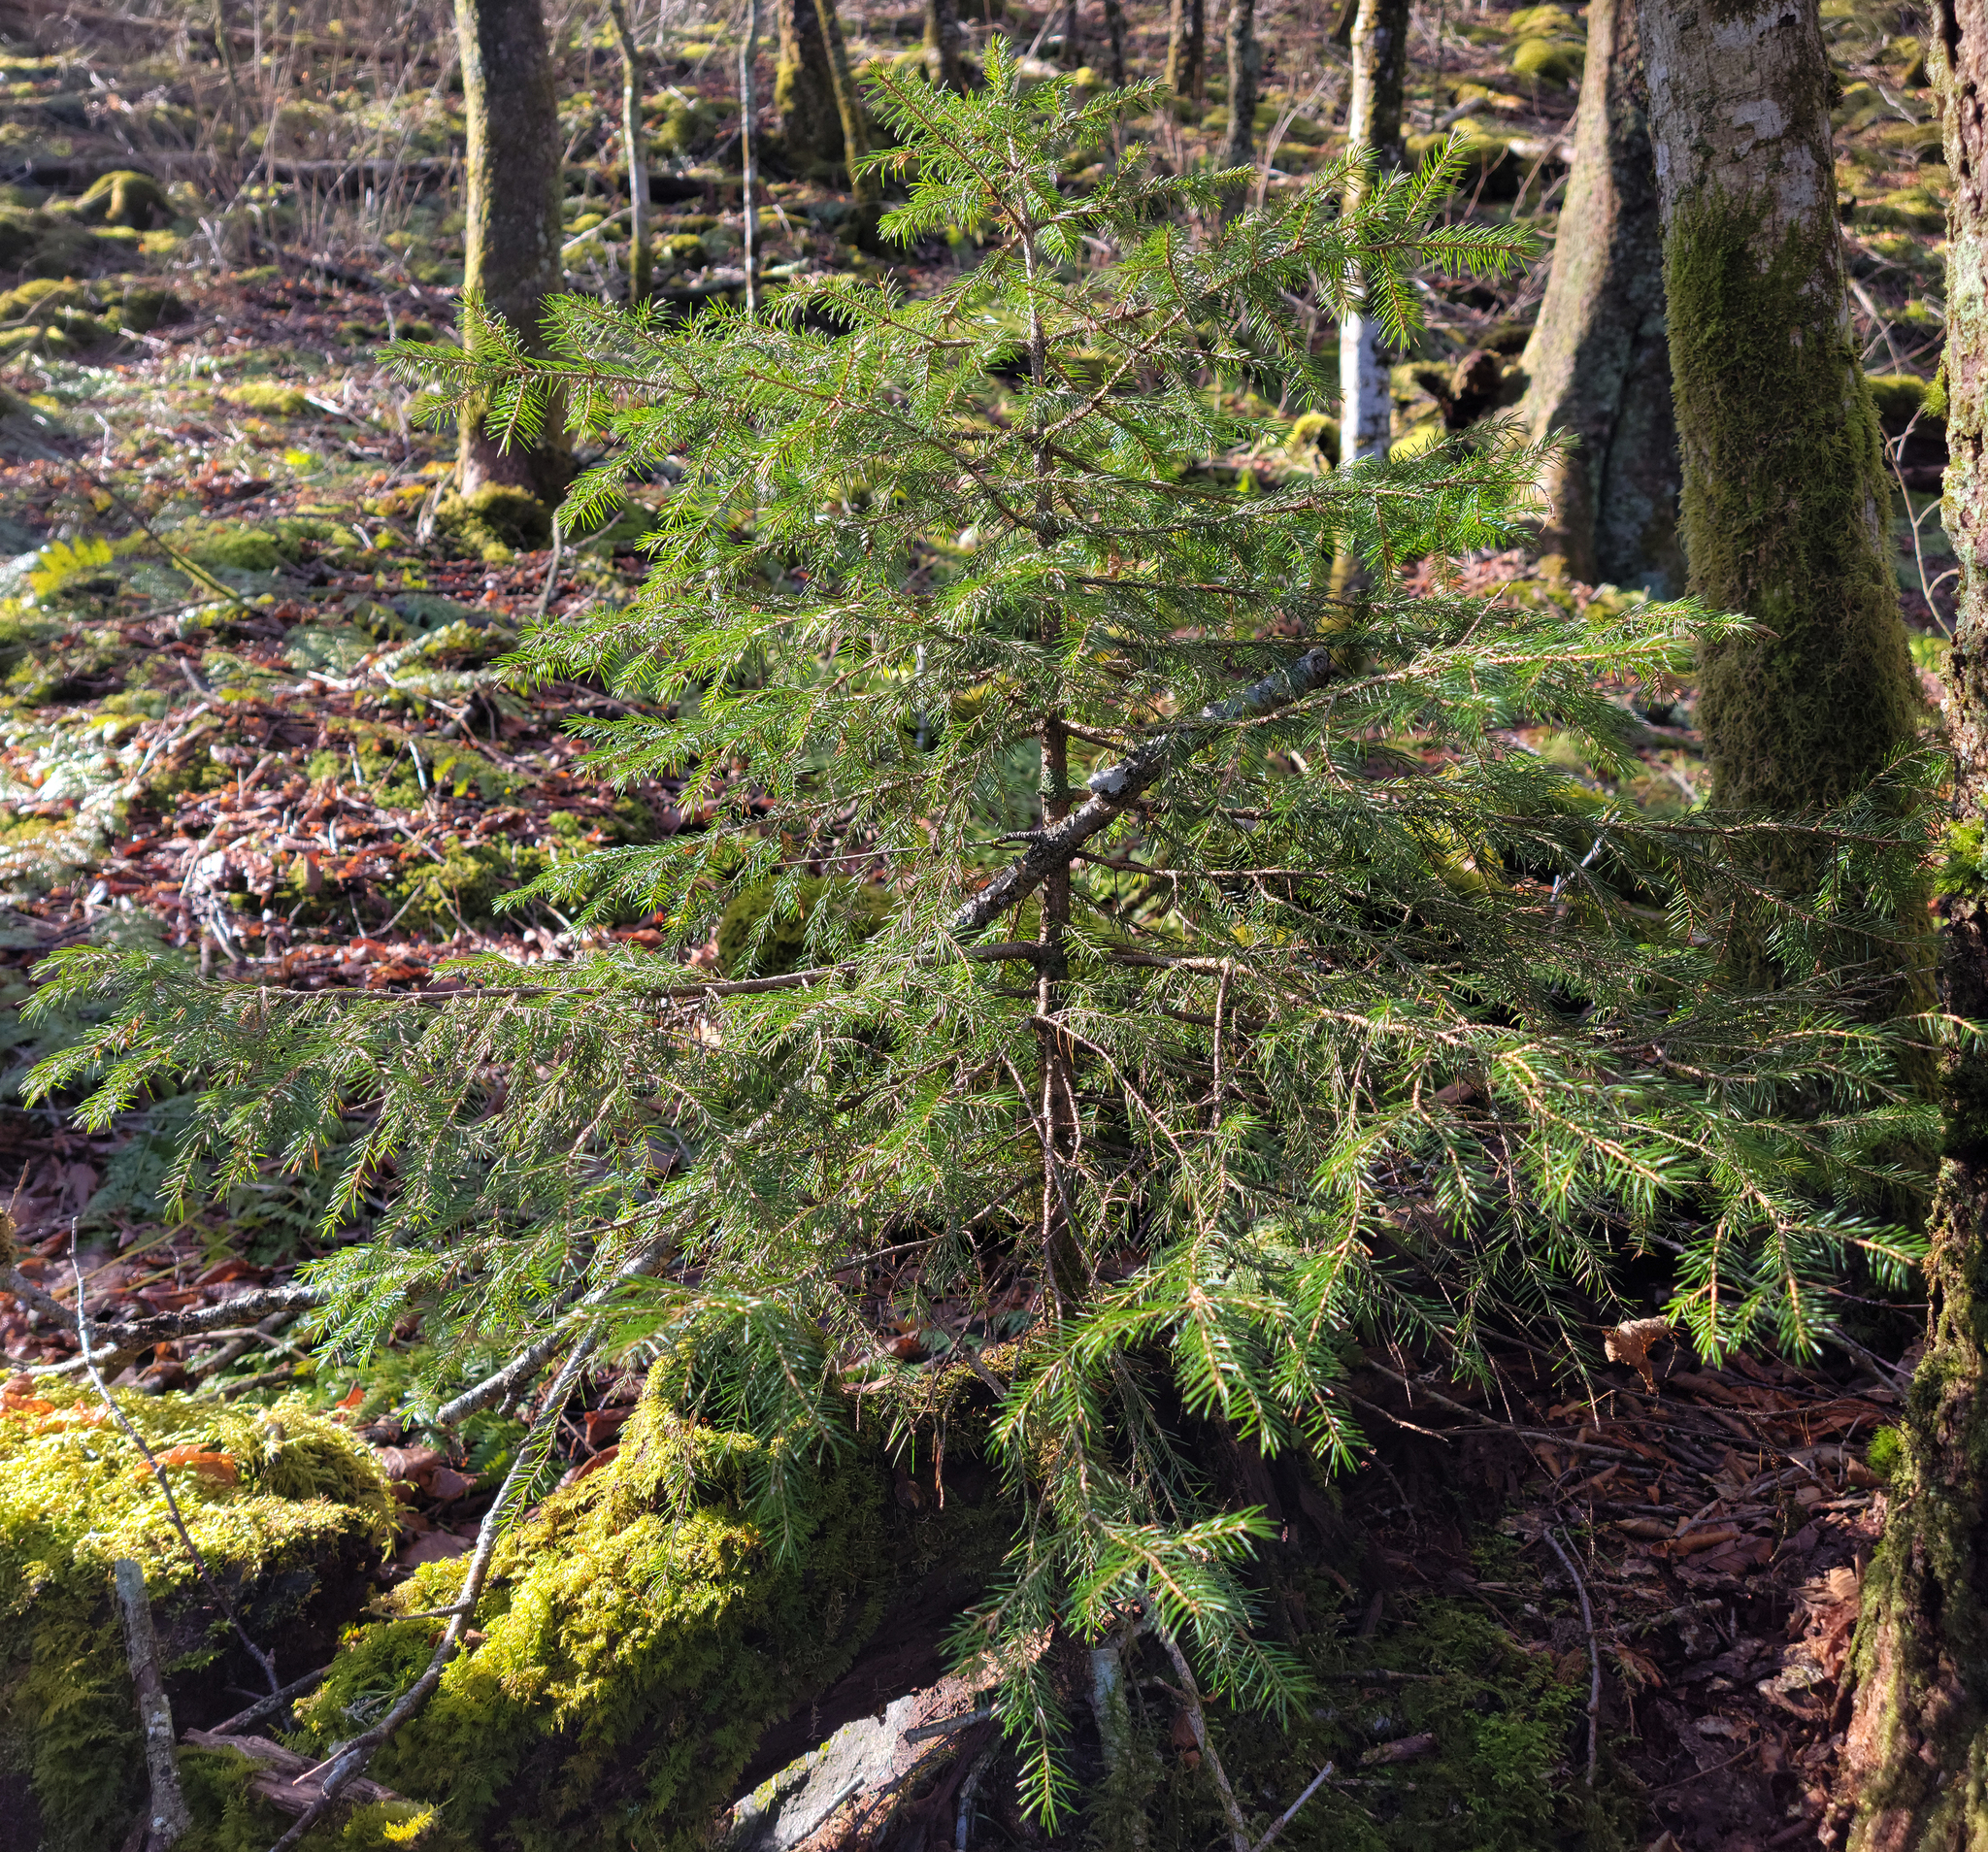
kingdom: Plantae
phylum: Tracheophyta
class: Pinopsida
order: Pinales
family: Pinaceae
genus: Picea
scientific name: Picea rubens
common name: Red spruce
